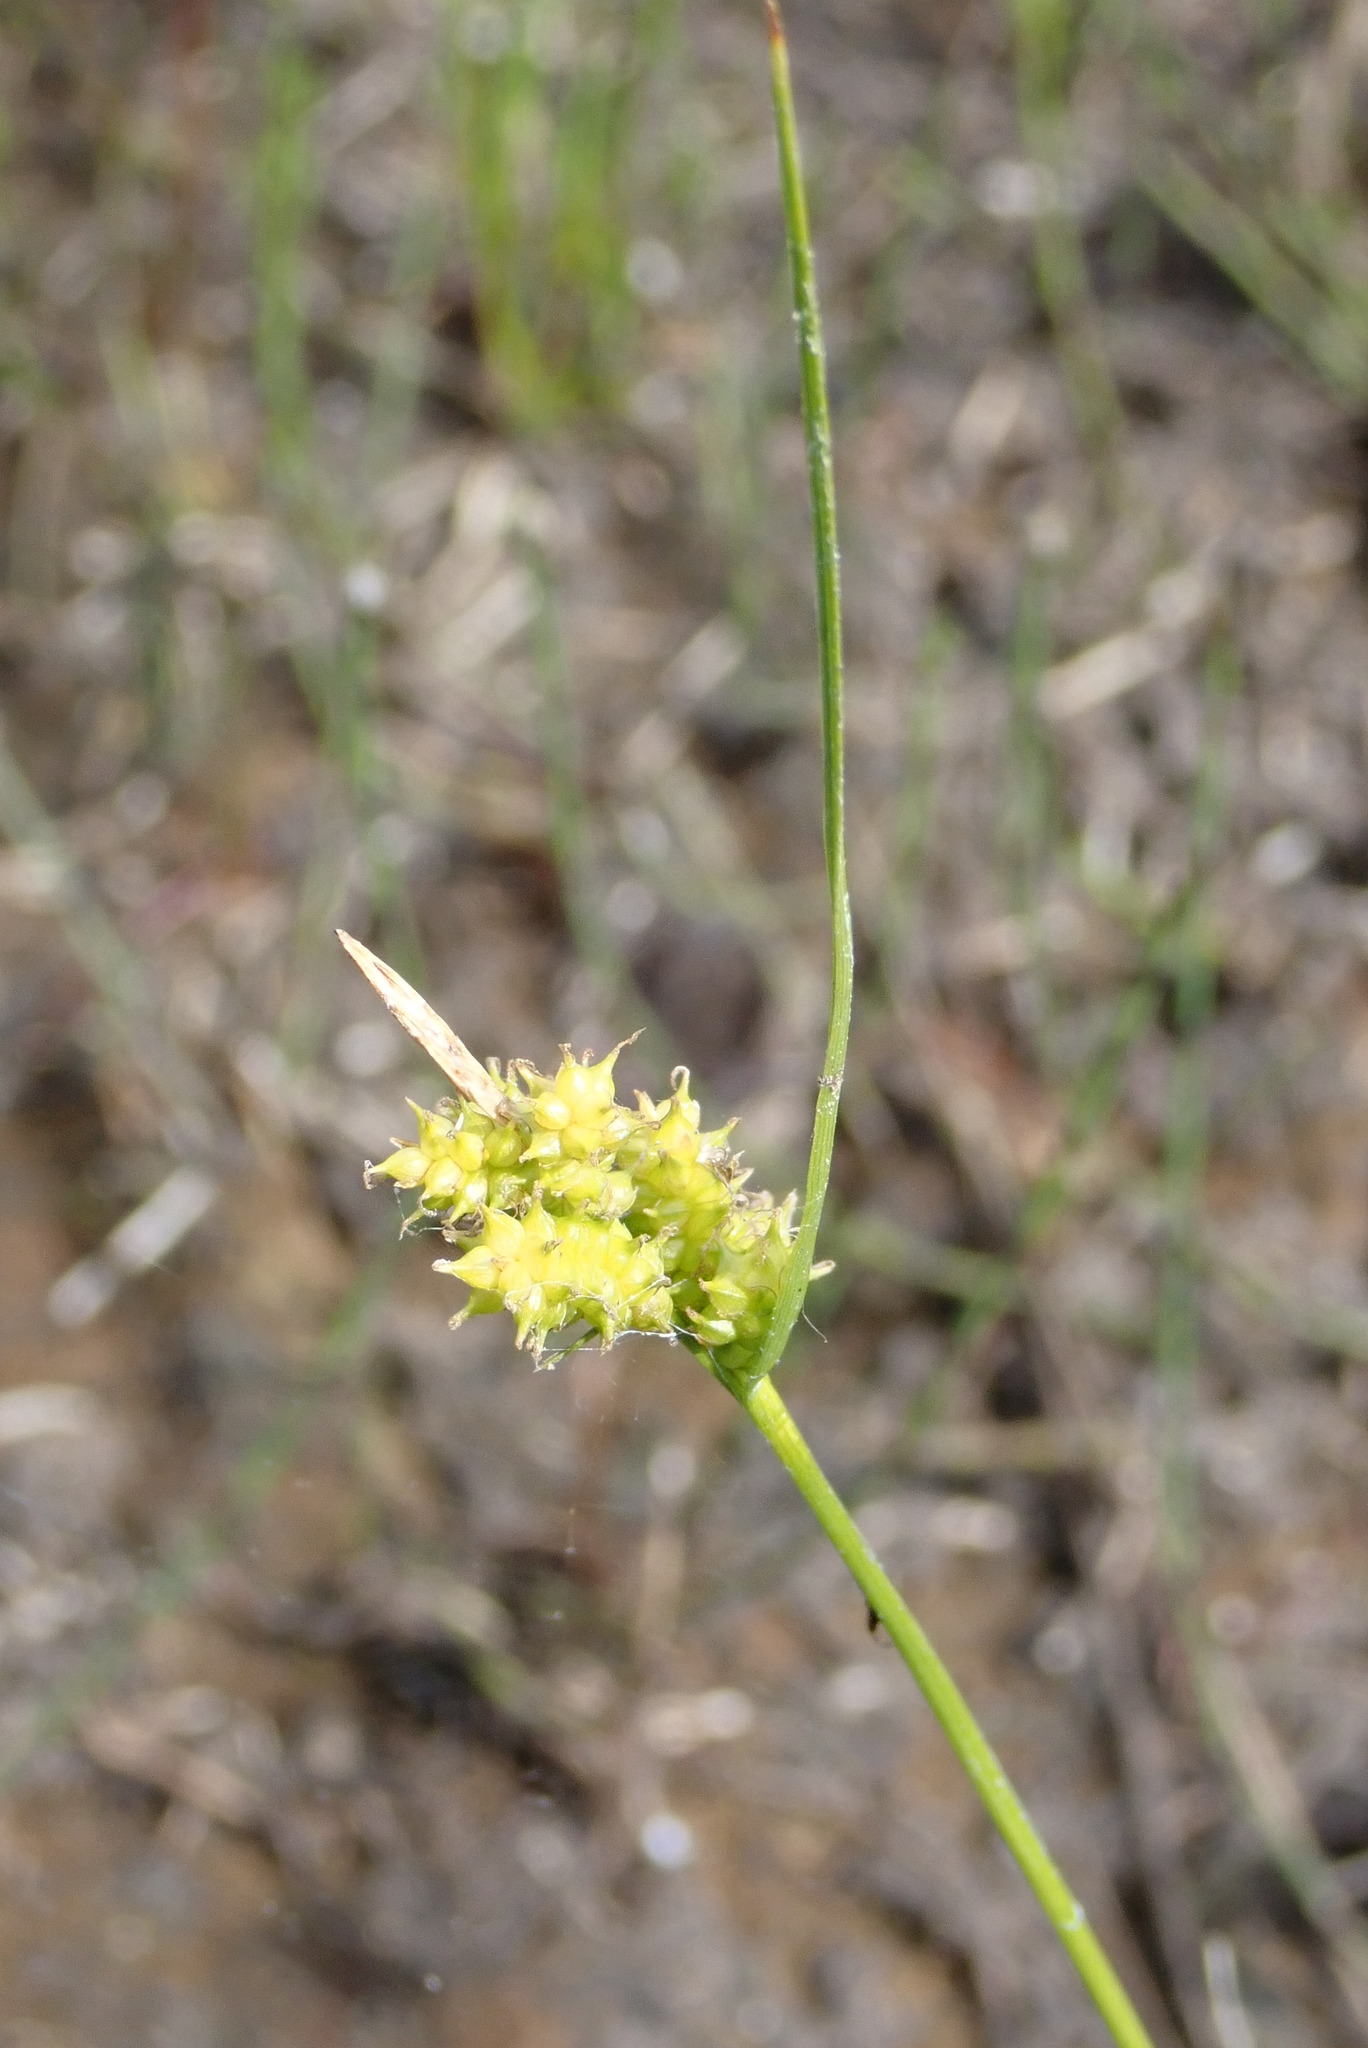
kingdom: Plantae
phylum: Tracheophyta
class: Liliopsida
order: Poales
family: Cyperaceae
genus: Carex
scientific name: Carex
